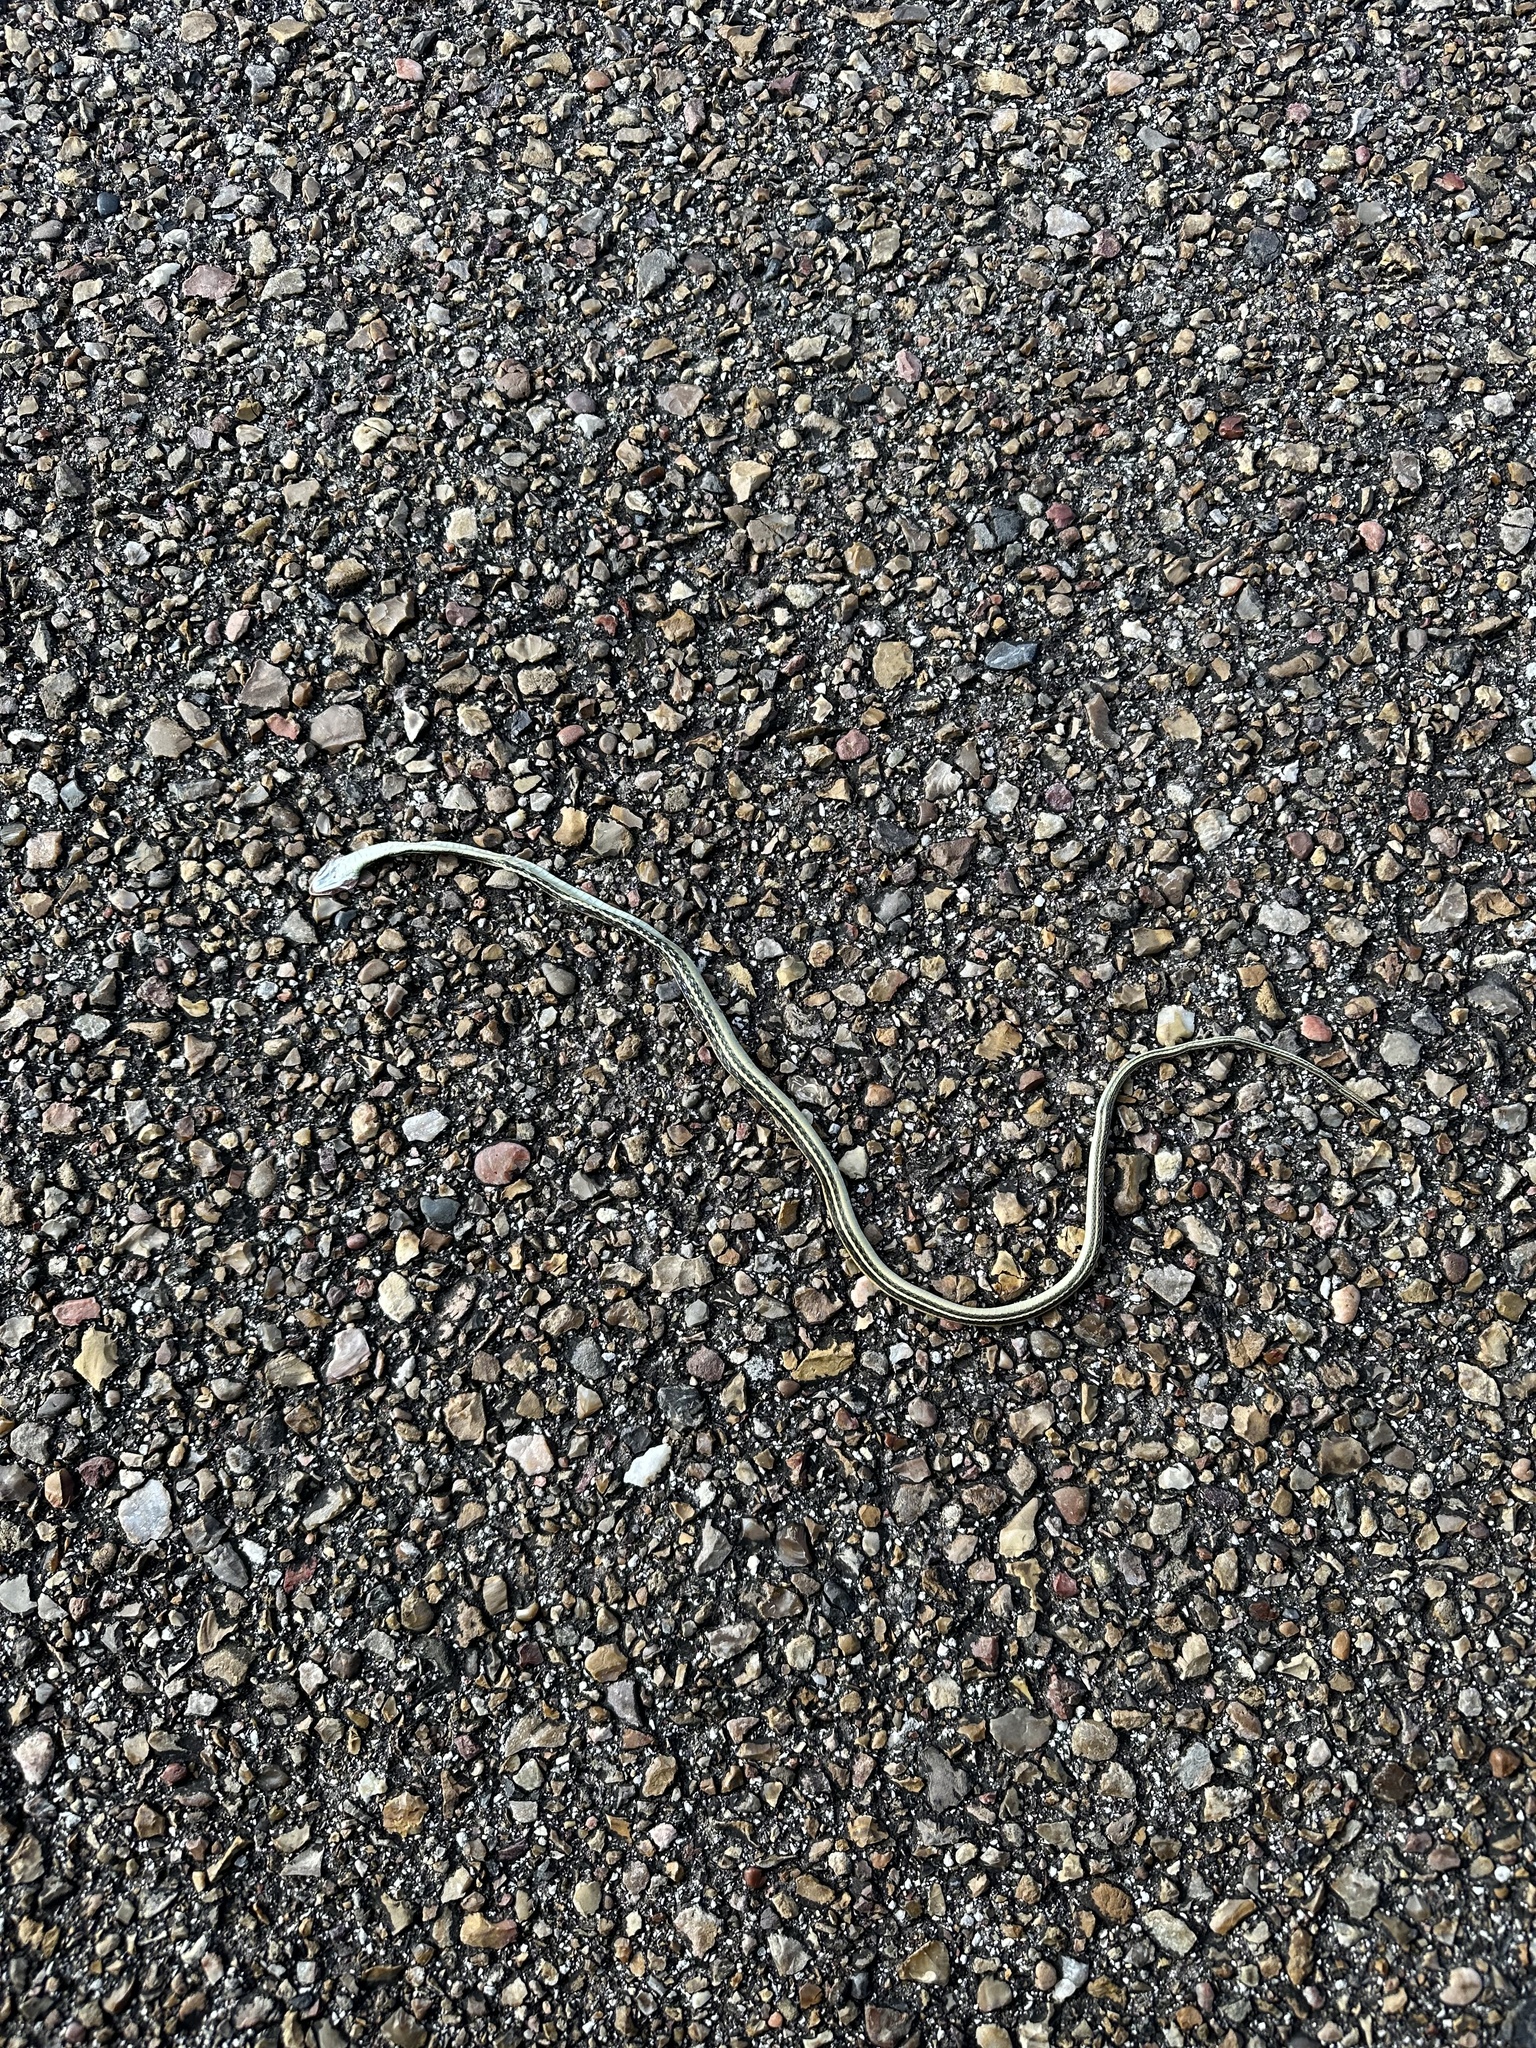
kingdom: Animalia
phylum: Chordata
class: Squamata
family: Colubridae
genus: Thamnophis
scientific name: Thamnophis proximus
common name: Western ribbon snake
